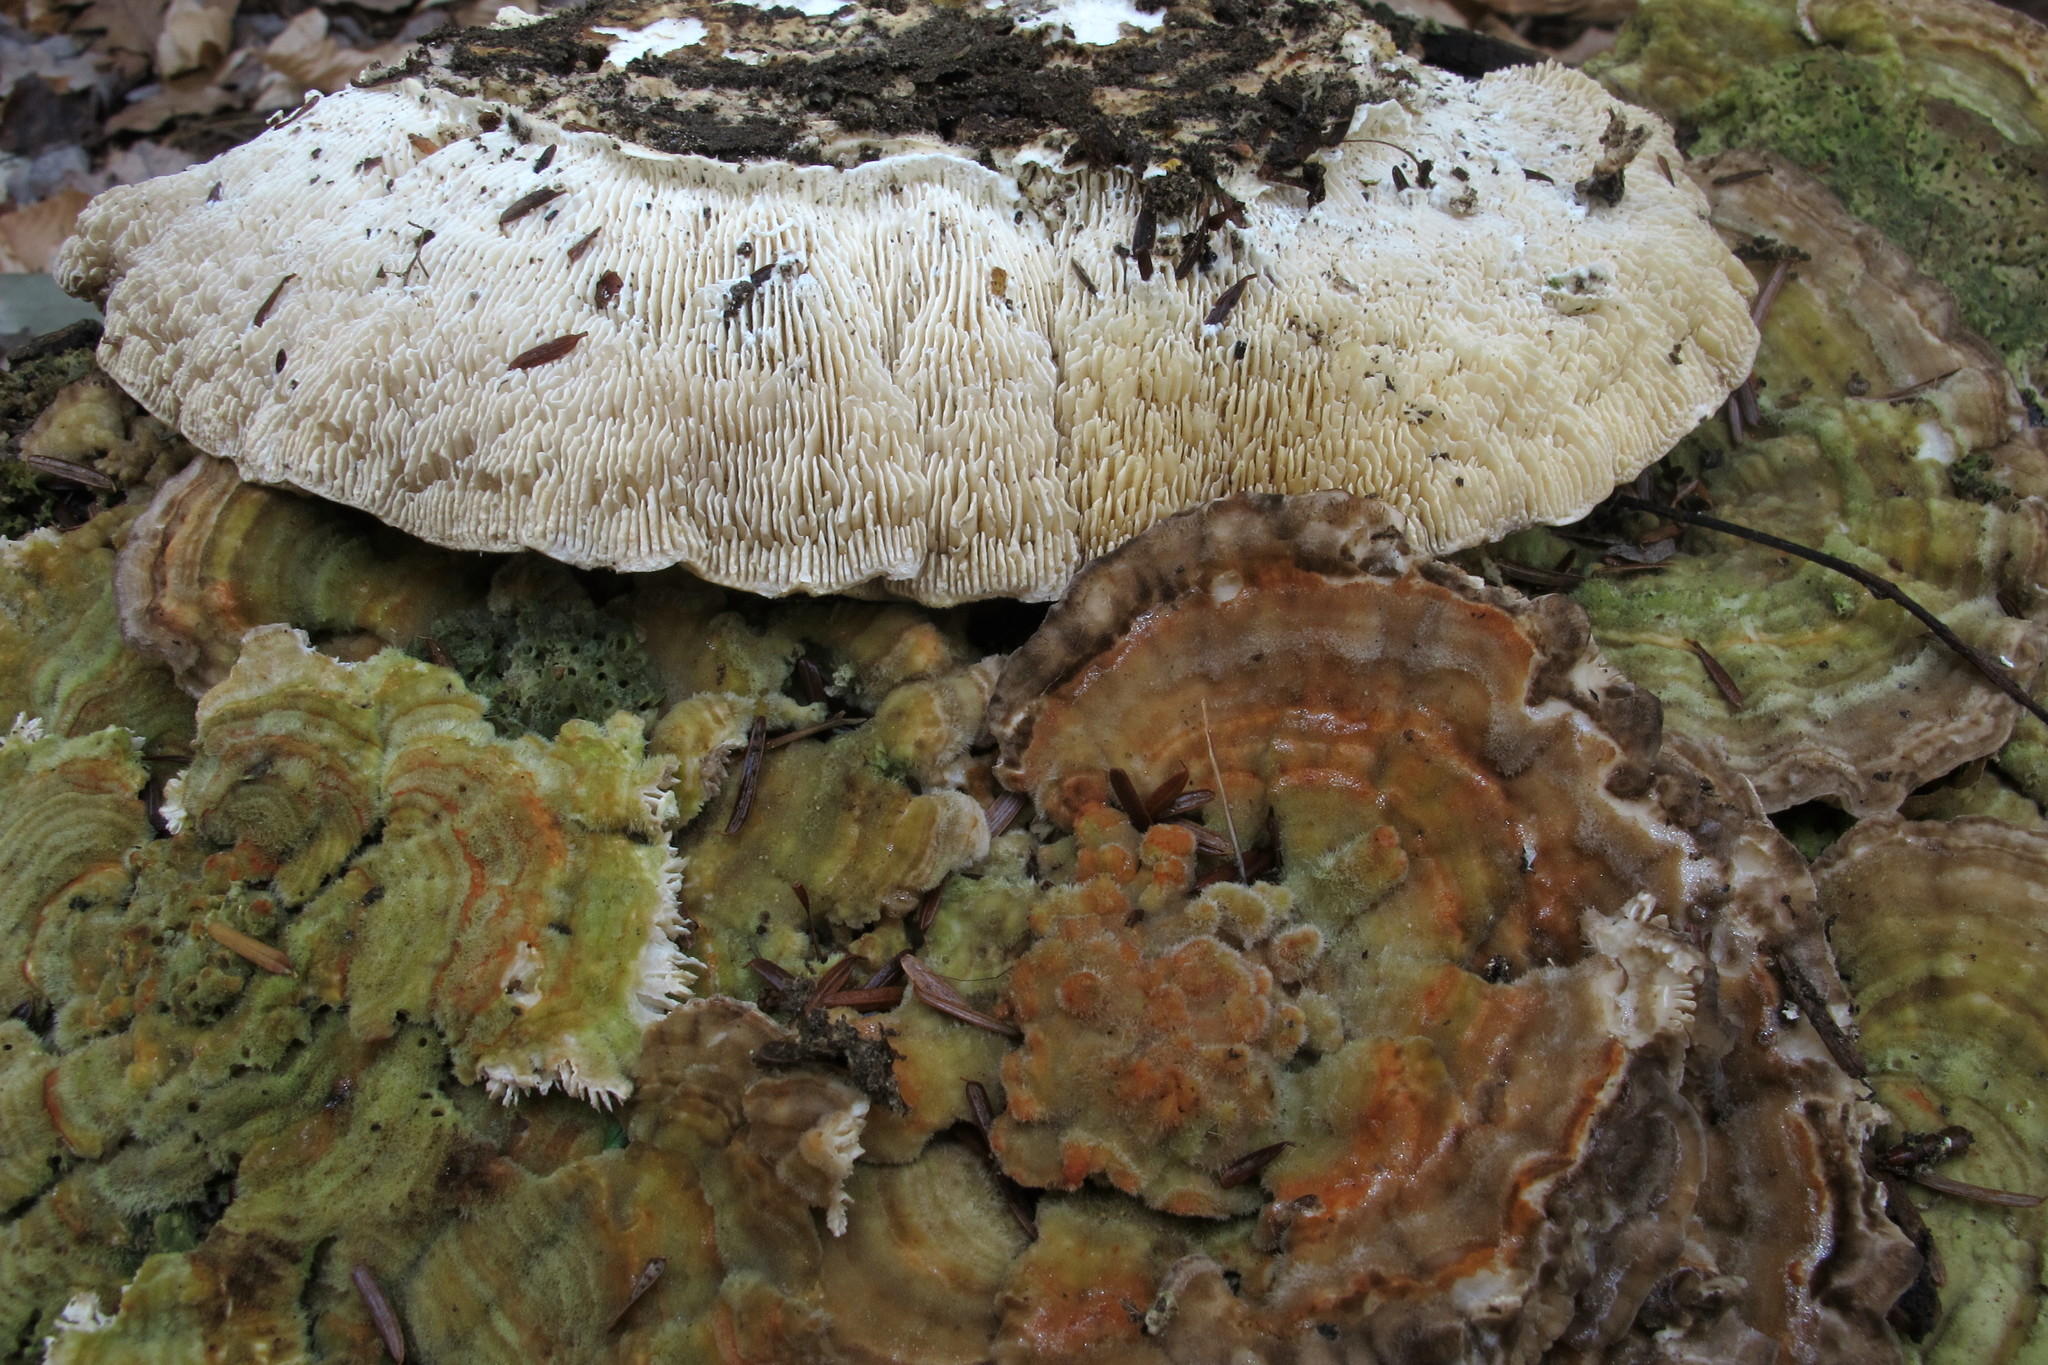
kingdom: Fungi
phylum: Basidiomycota
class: Agaricomycetes
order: Polyporales
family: Polyporaceae
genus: Lenzites
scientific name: Lenzites betulinus
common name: Birch mazegill
